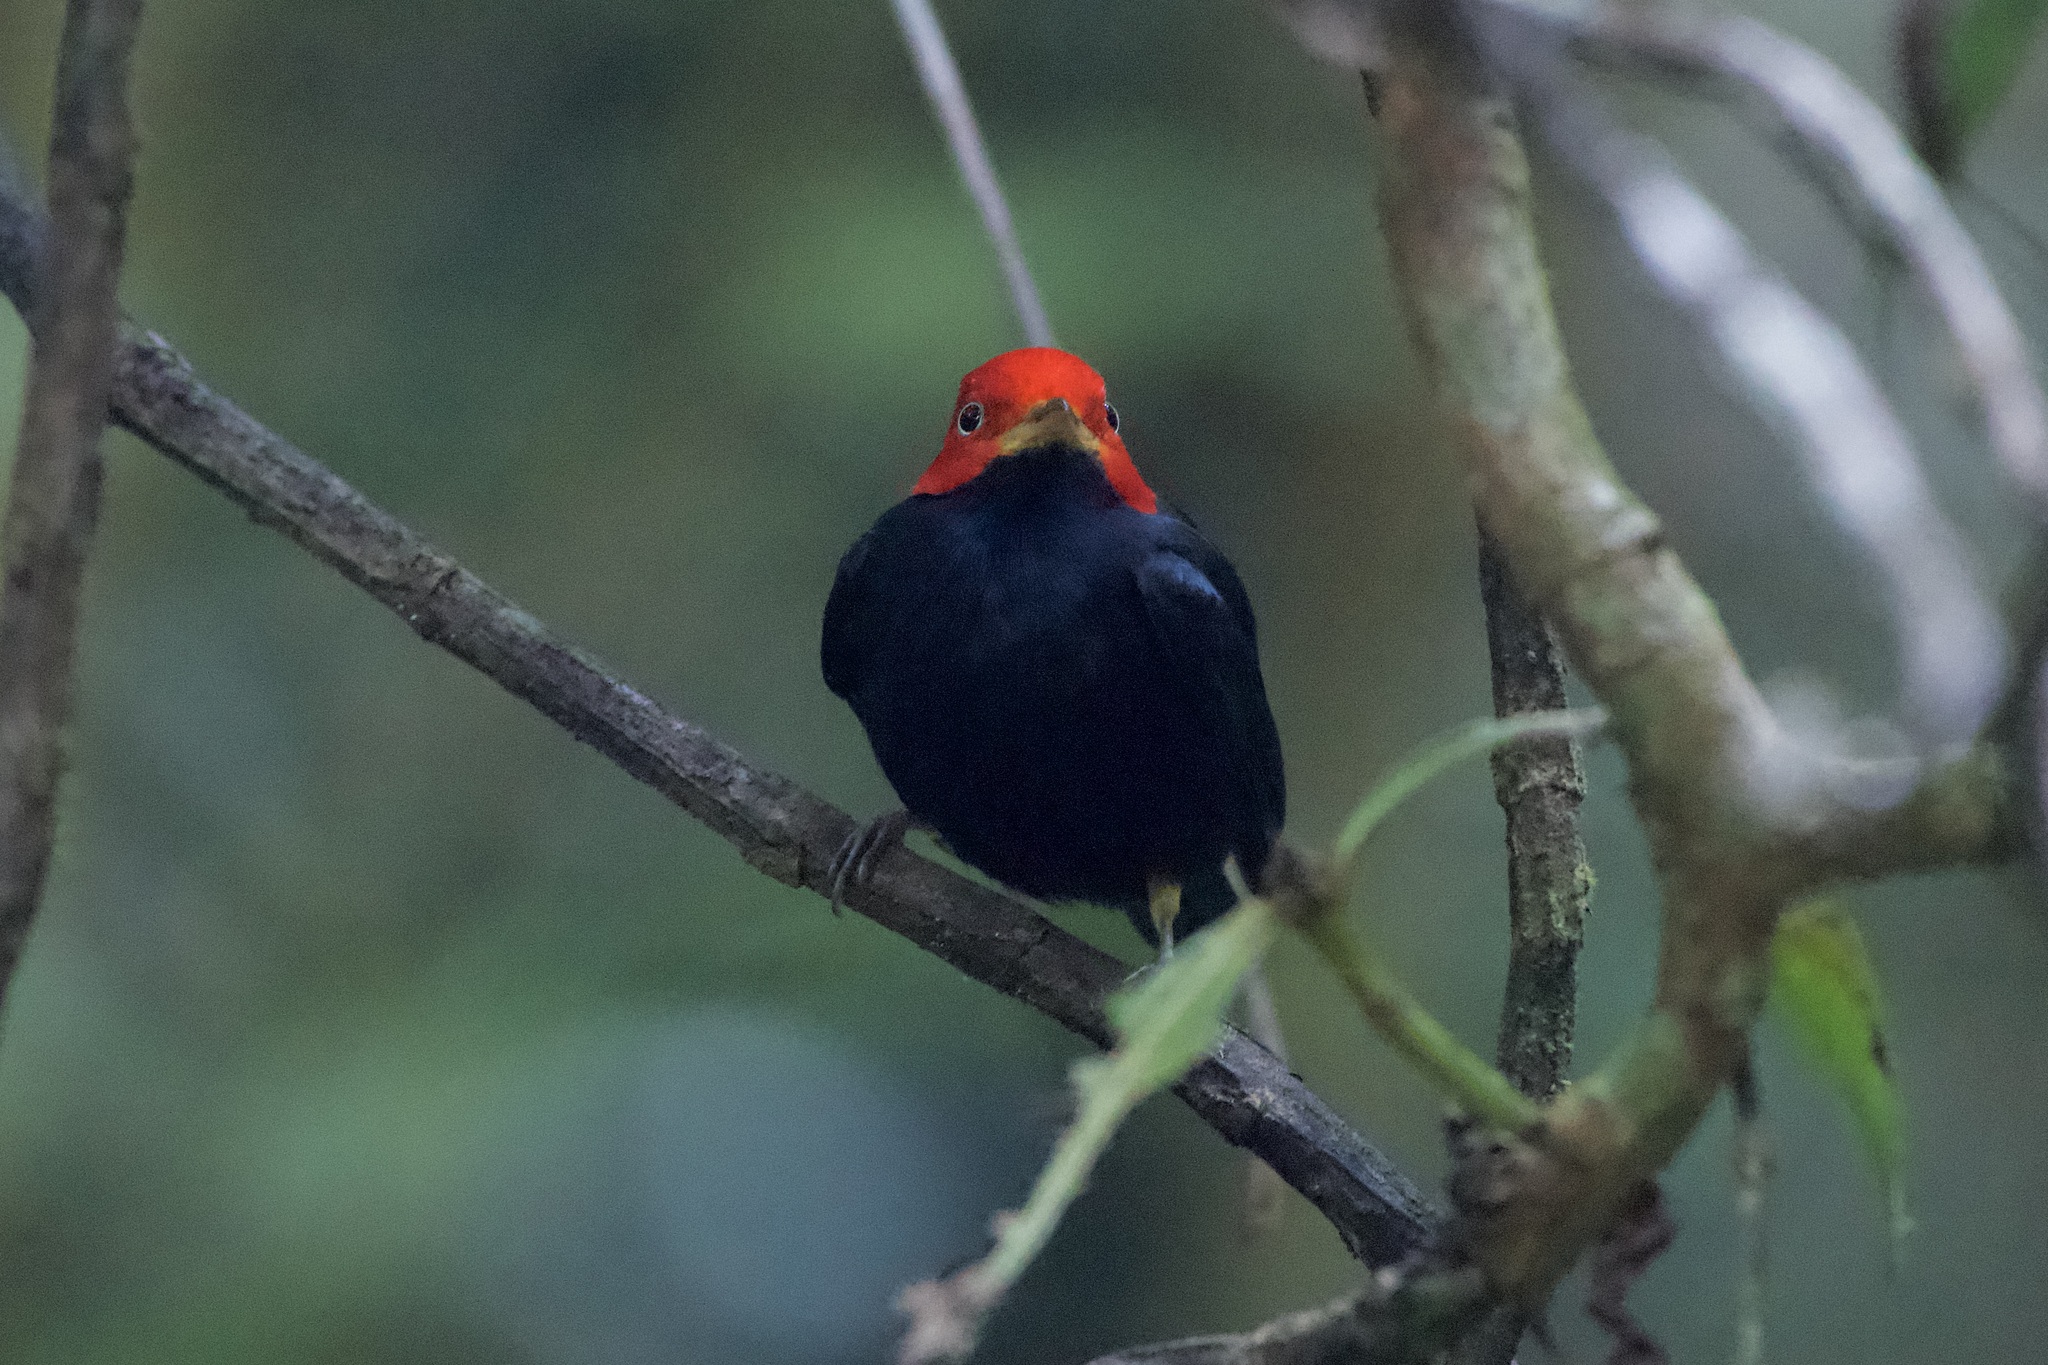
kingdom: Animalia
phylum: Chordata
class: Aves
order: Passeriformes
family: Pipridae
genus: Pipra
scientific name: Pipra mentalis
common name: Red-capped manakin
